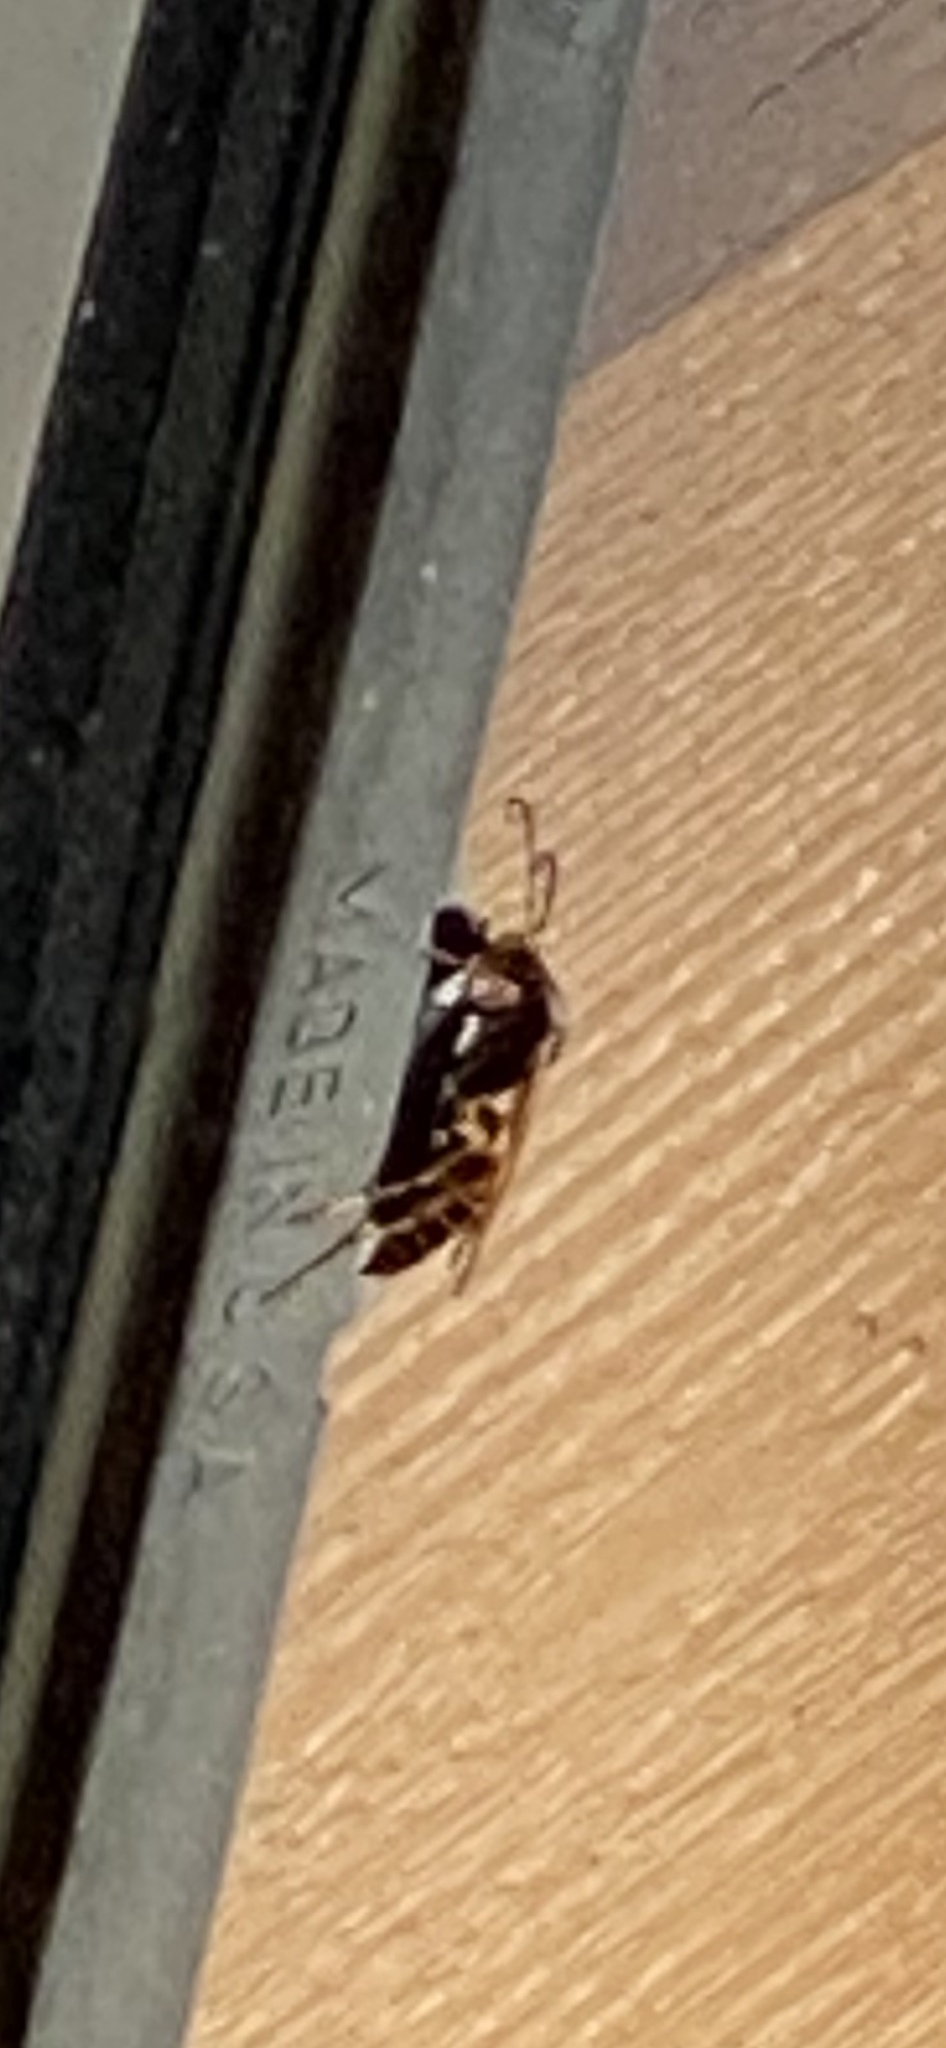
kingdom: Animalia
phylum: Arthropoda
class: Insecta
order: Hymenoptera
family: Eumenidae
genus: Polistes
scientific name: Polistes fuscatus
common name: Dark paper wasp
